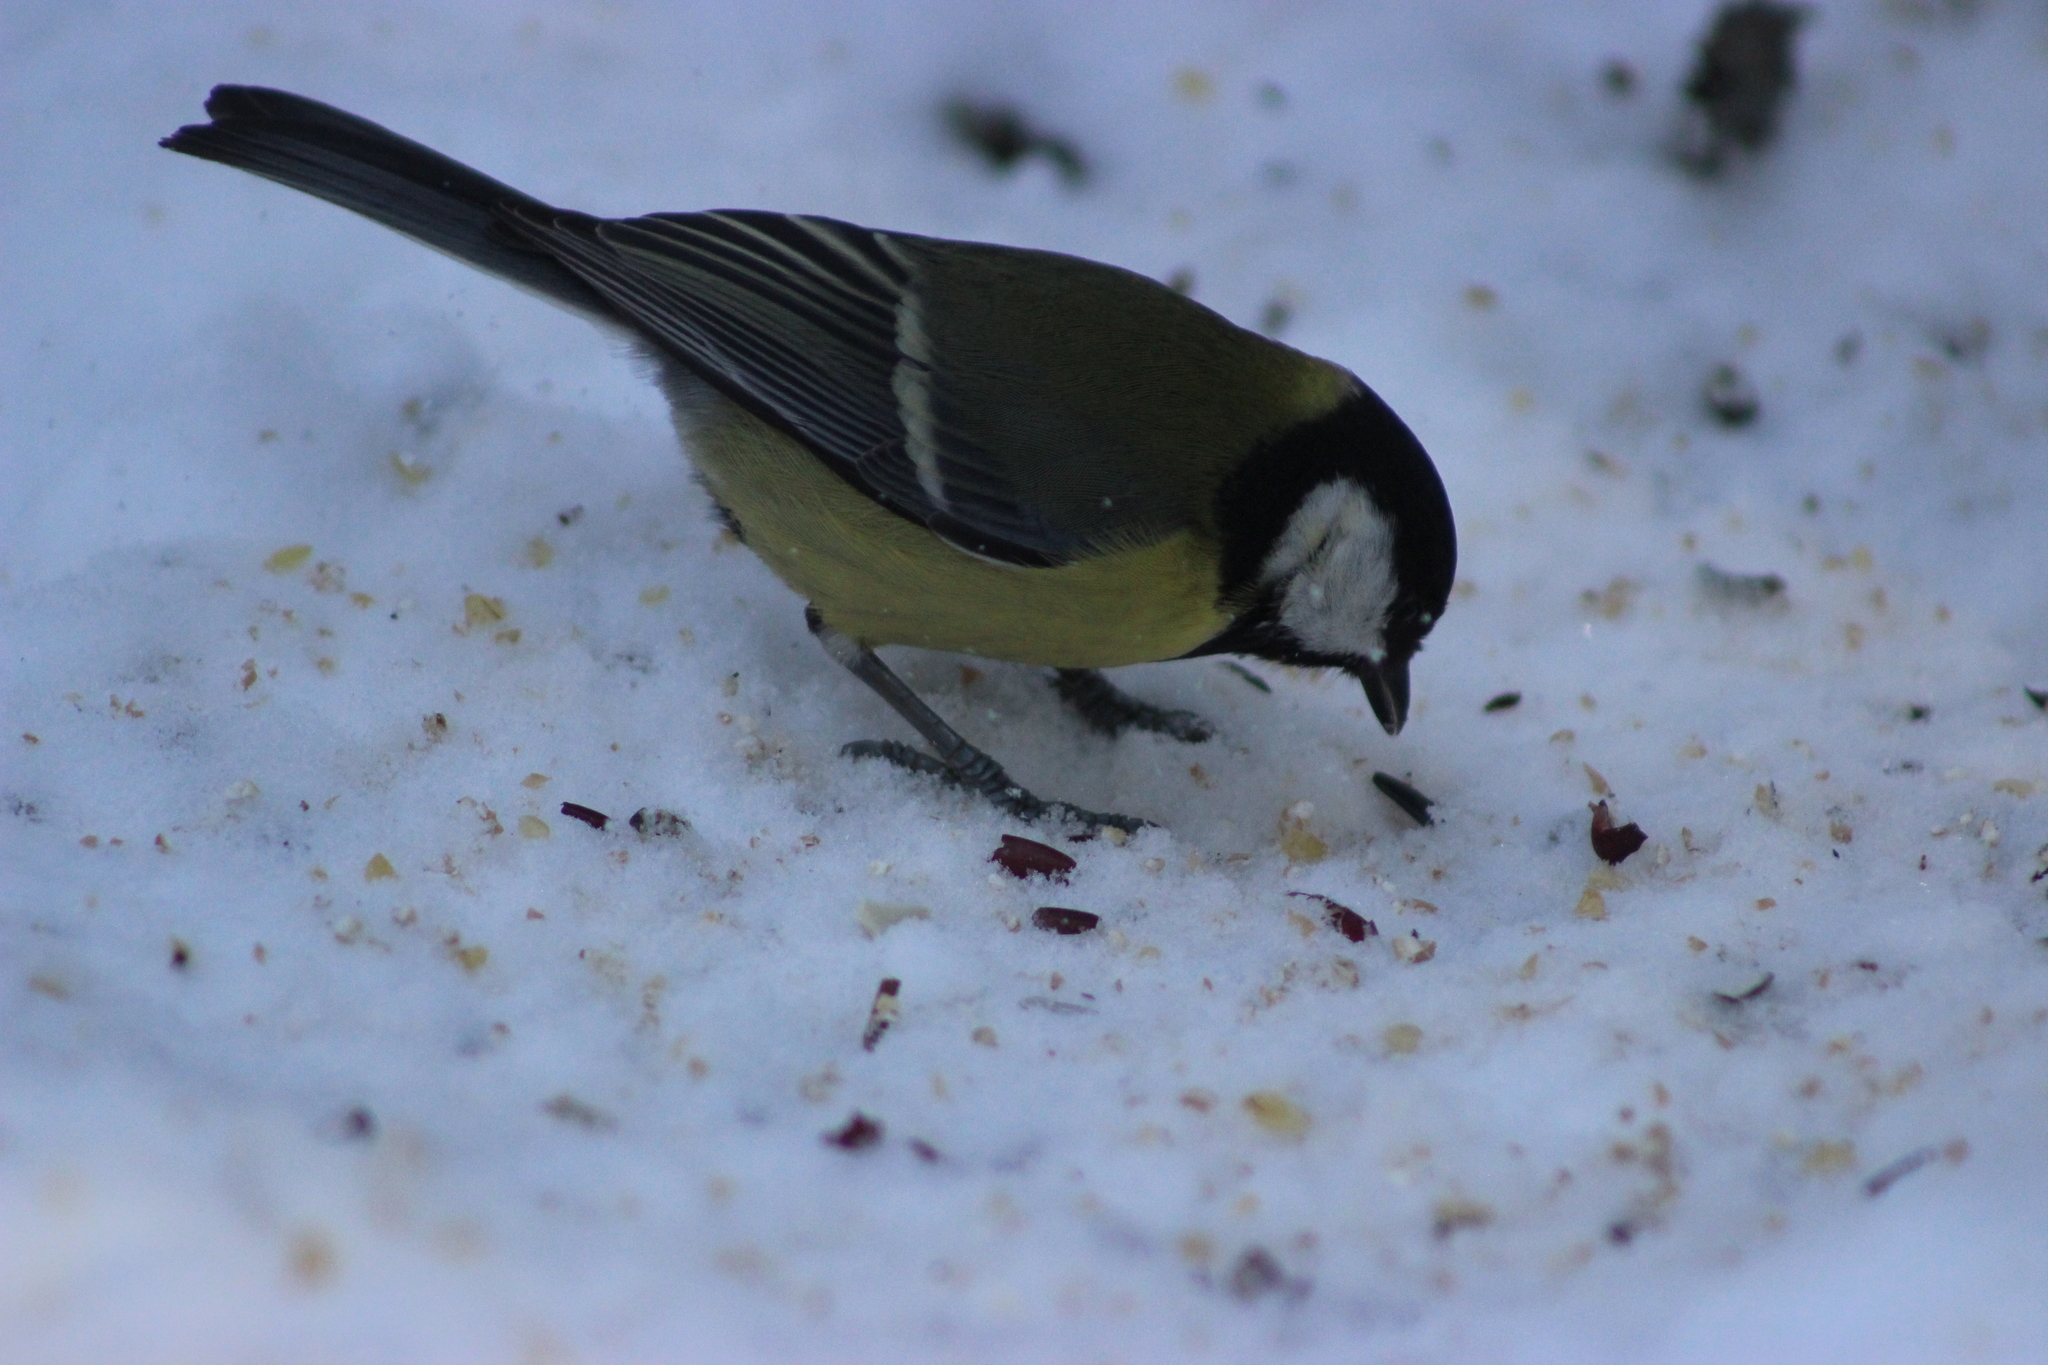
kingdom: Animalia
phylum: Chordata
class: Aves
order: Passeriformes
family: Paridae
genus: Parus
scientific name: Parus major
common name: Great tit
